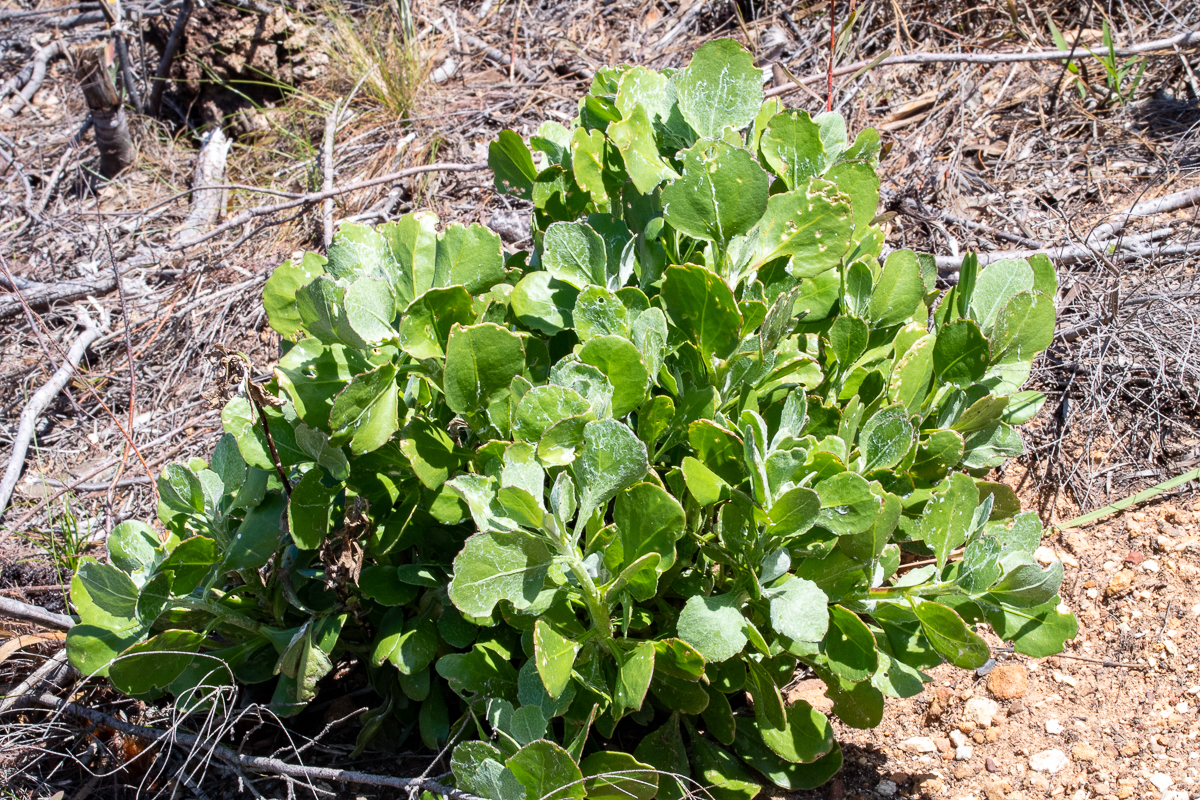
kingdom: Plantae
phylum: Tracheophyta
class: Magnoliopsida
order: Asterales
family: Asteraceae
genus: Osteospermum
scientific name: Osteospermum moniliferum
